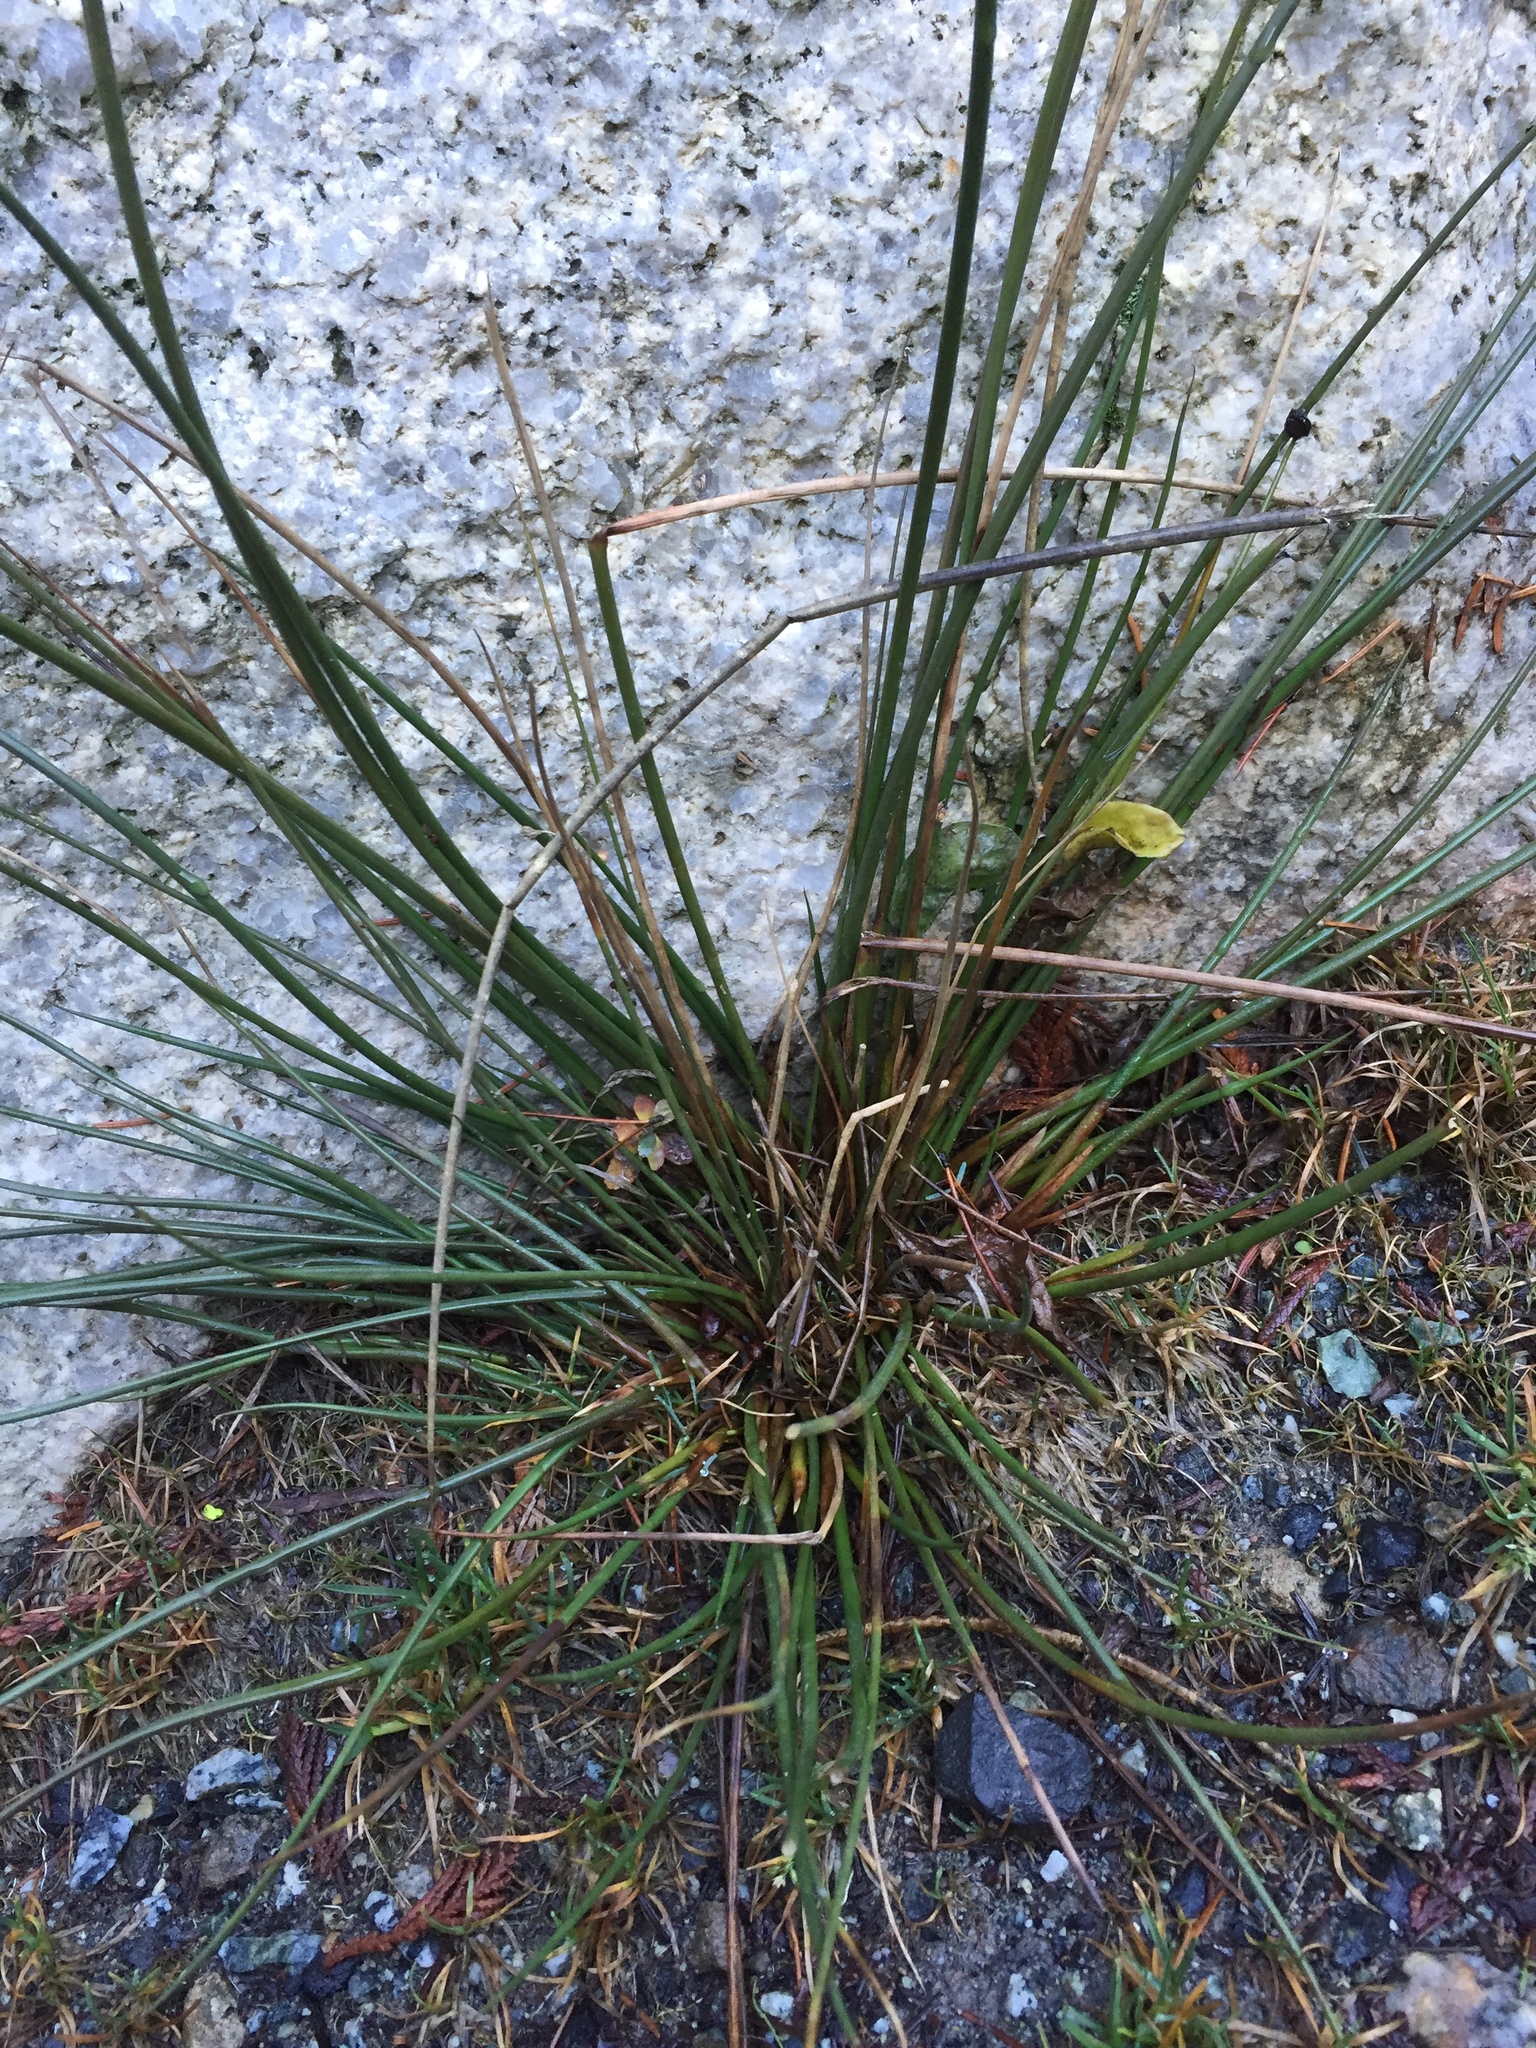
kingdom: Plantae
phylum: Tracheophyta
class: Liliopsida
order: Poales
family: Juncaceae
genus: Juncus
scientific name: Juncus effusus
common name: Soft rush
